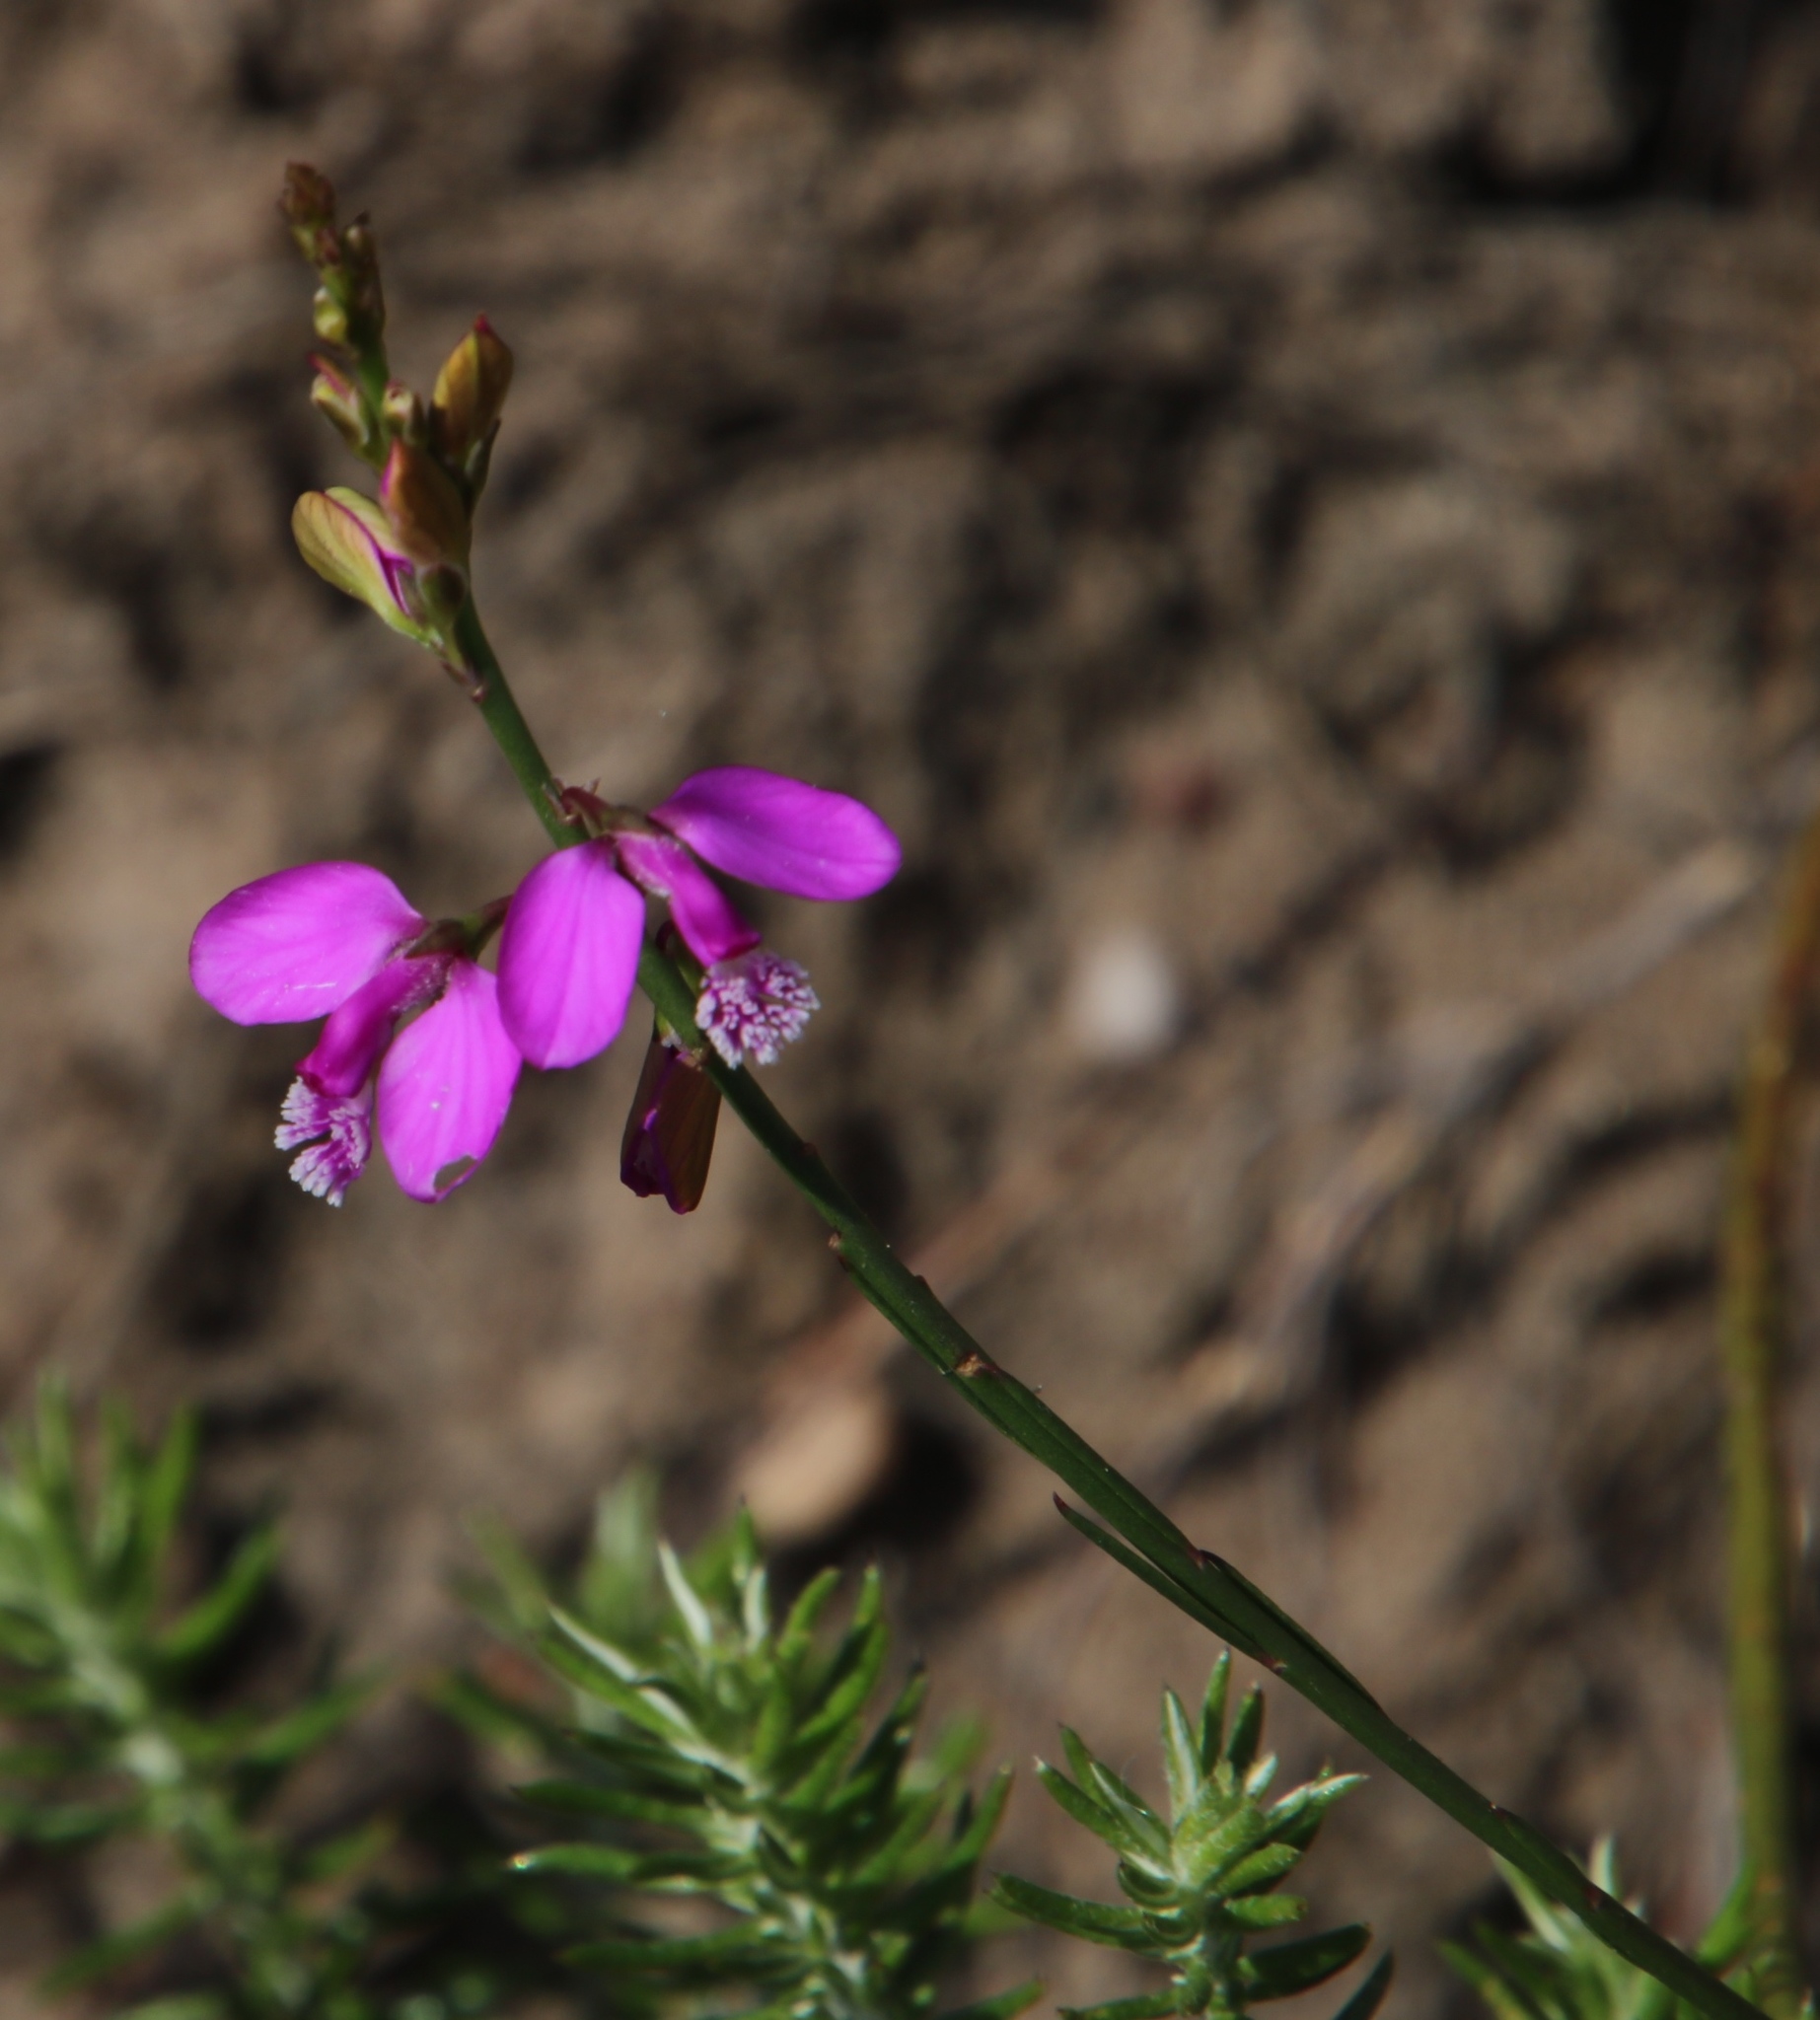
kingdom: Plantae
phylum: Tracheophyta
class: Magnoliopsida
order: Fabales
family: Polygalaceae
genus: Polygala
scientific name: Polygala garcini
